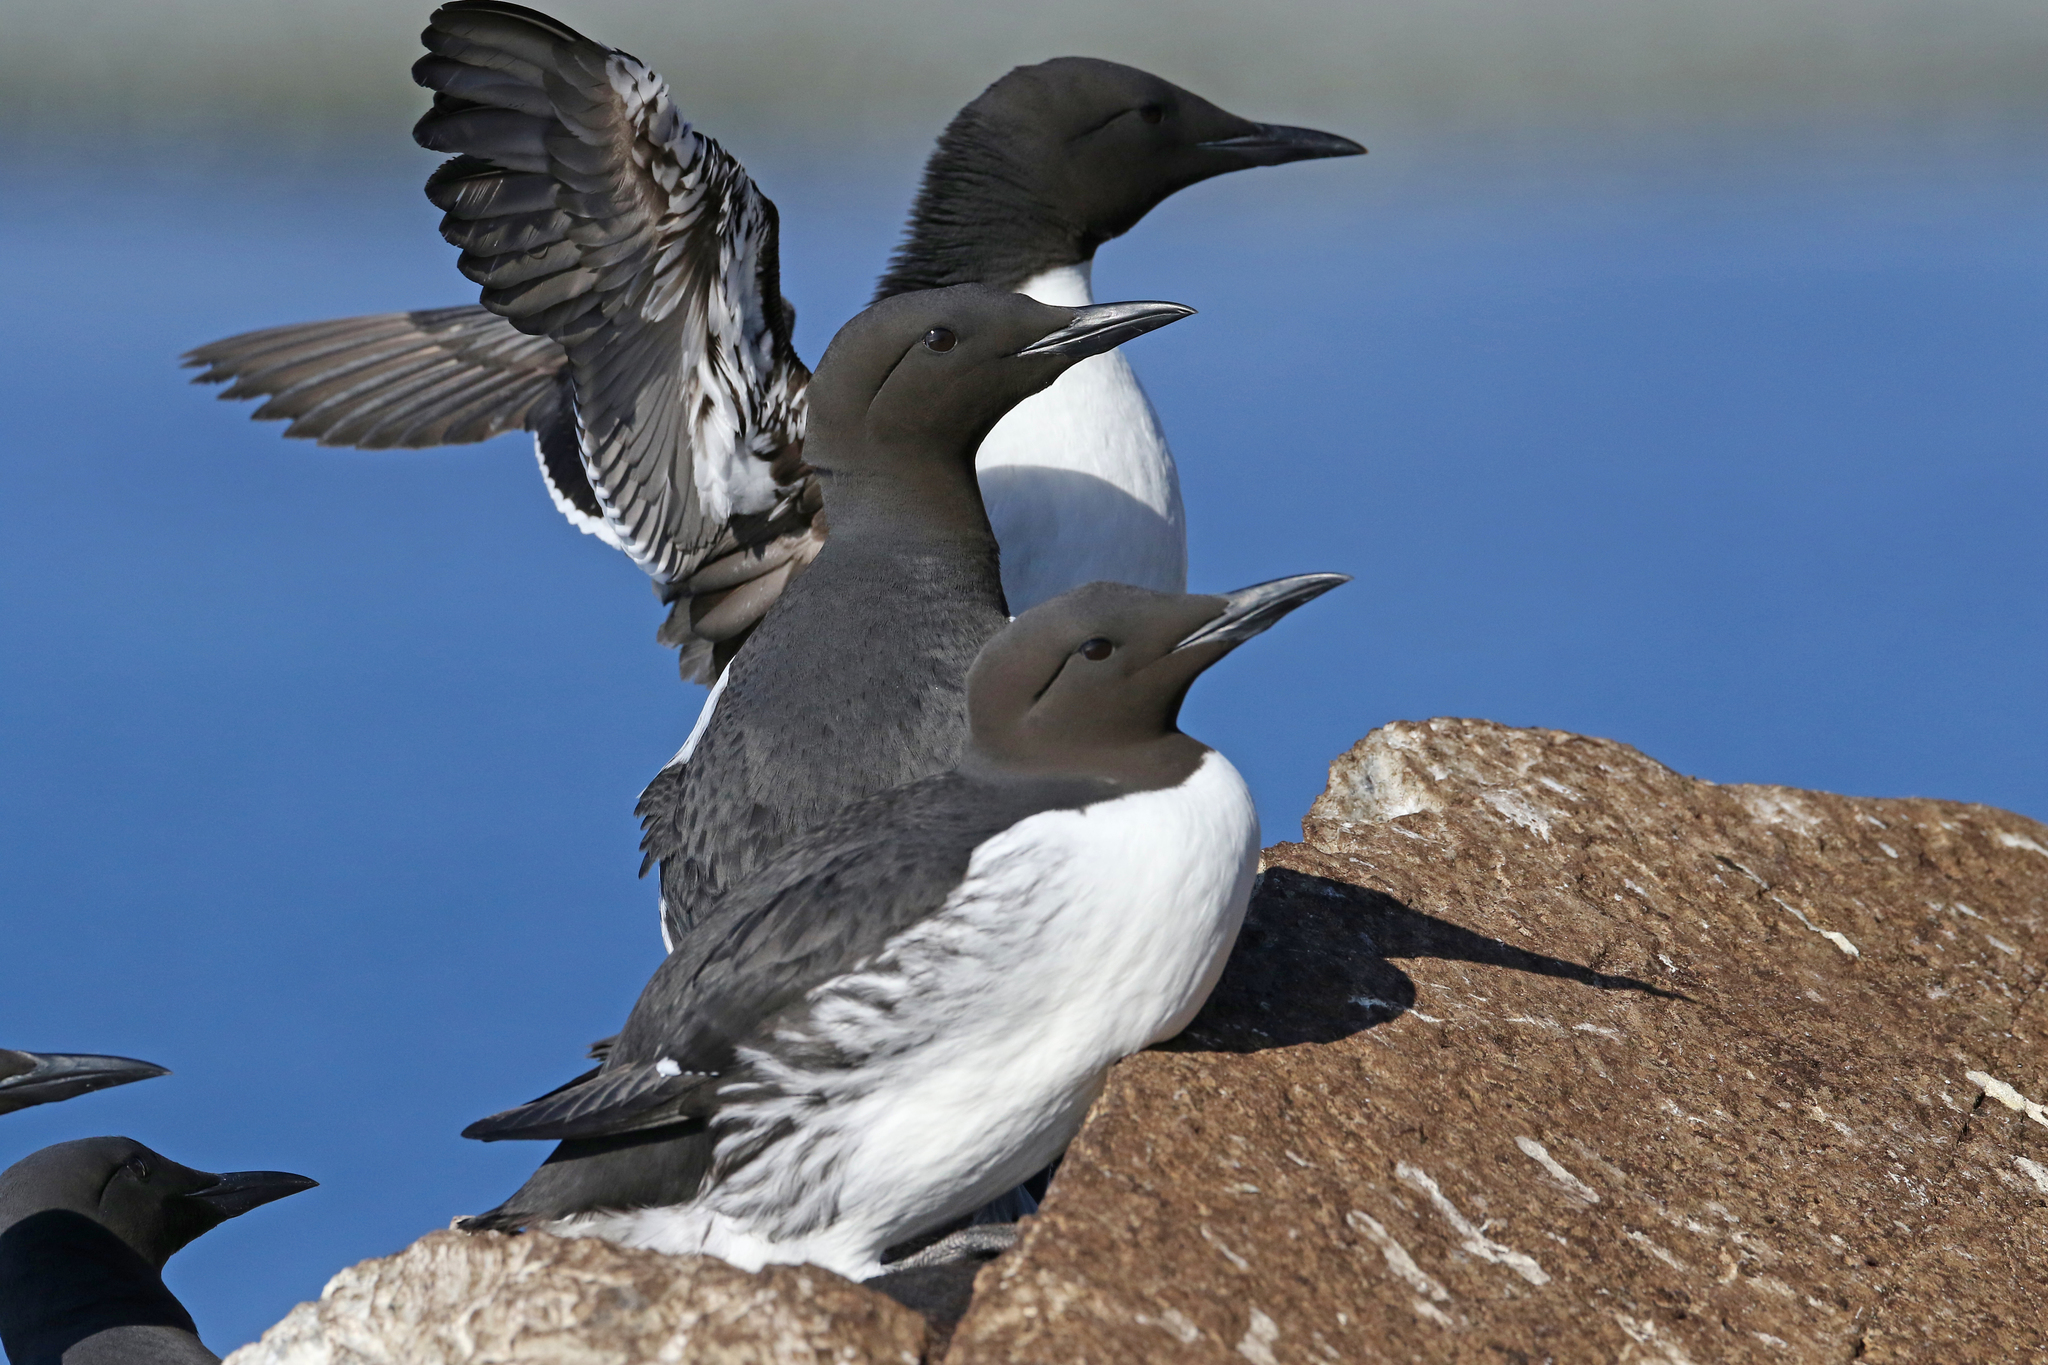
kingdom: Animalia
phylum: Chordata
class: Aves
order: Charadriiformes
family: Alcidae
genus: Uria
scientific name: Uria aalge
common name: Common murre
